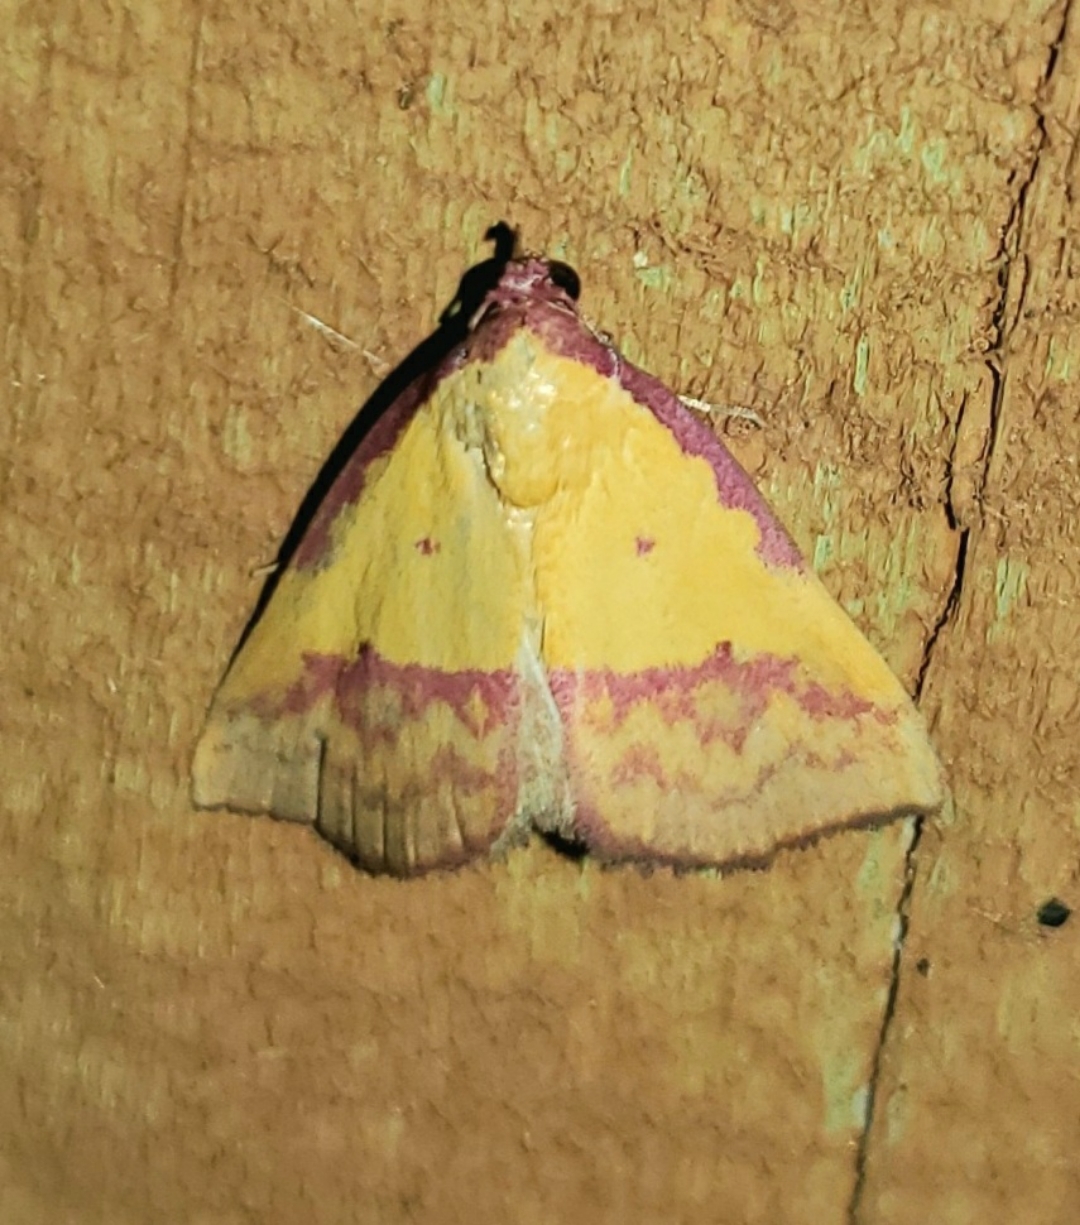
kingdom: Animalia
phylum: Arthropoda
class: Insecta
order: Lepidoptera
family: Erebidae
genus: Phytometra
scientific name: Phytometra rhodarialis
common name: Pink-bordered yellow
